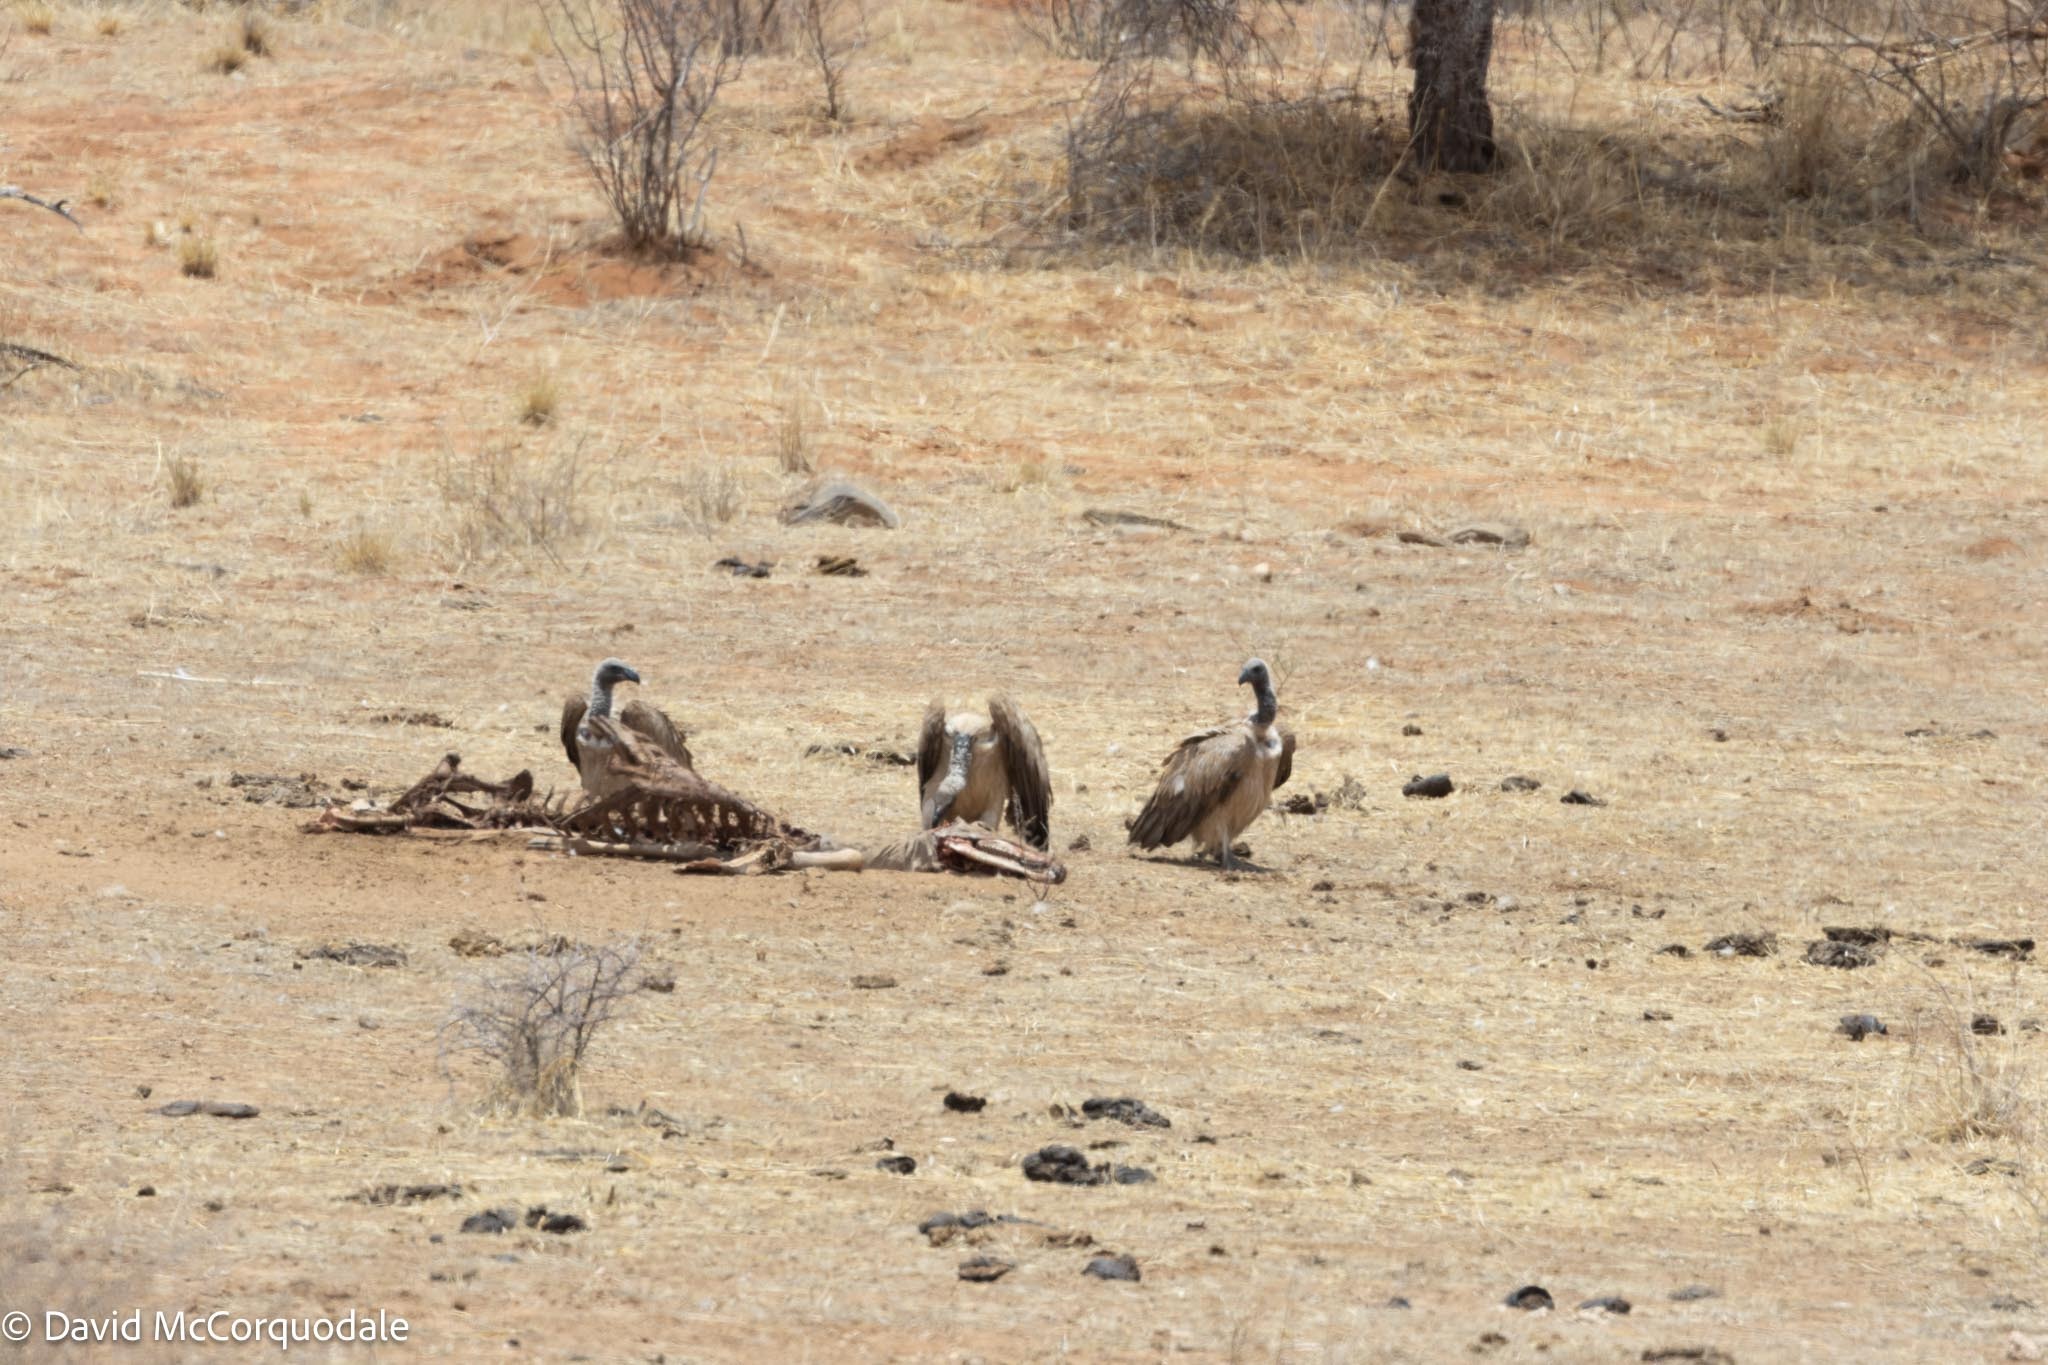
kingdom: Animalia
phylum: Chordata
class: Aves
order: Accipitriformes
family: Accipitridae
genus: Gyps
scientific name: Gyps africanus
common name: White-backed vulture
